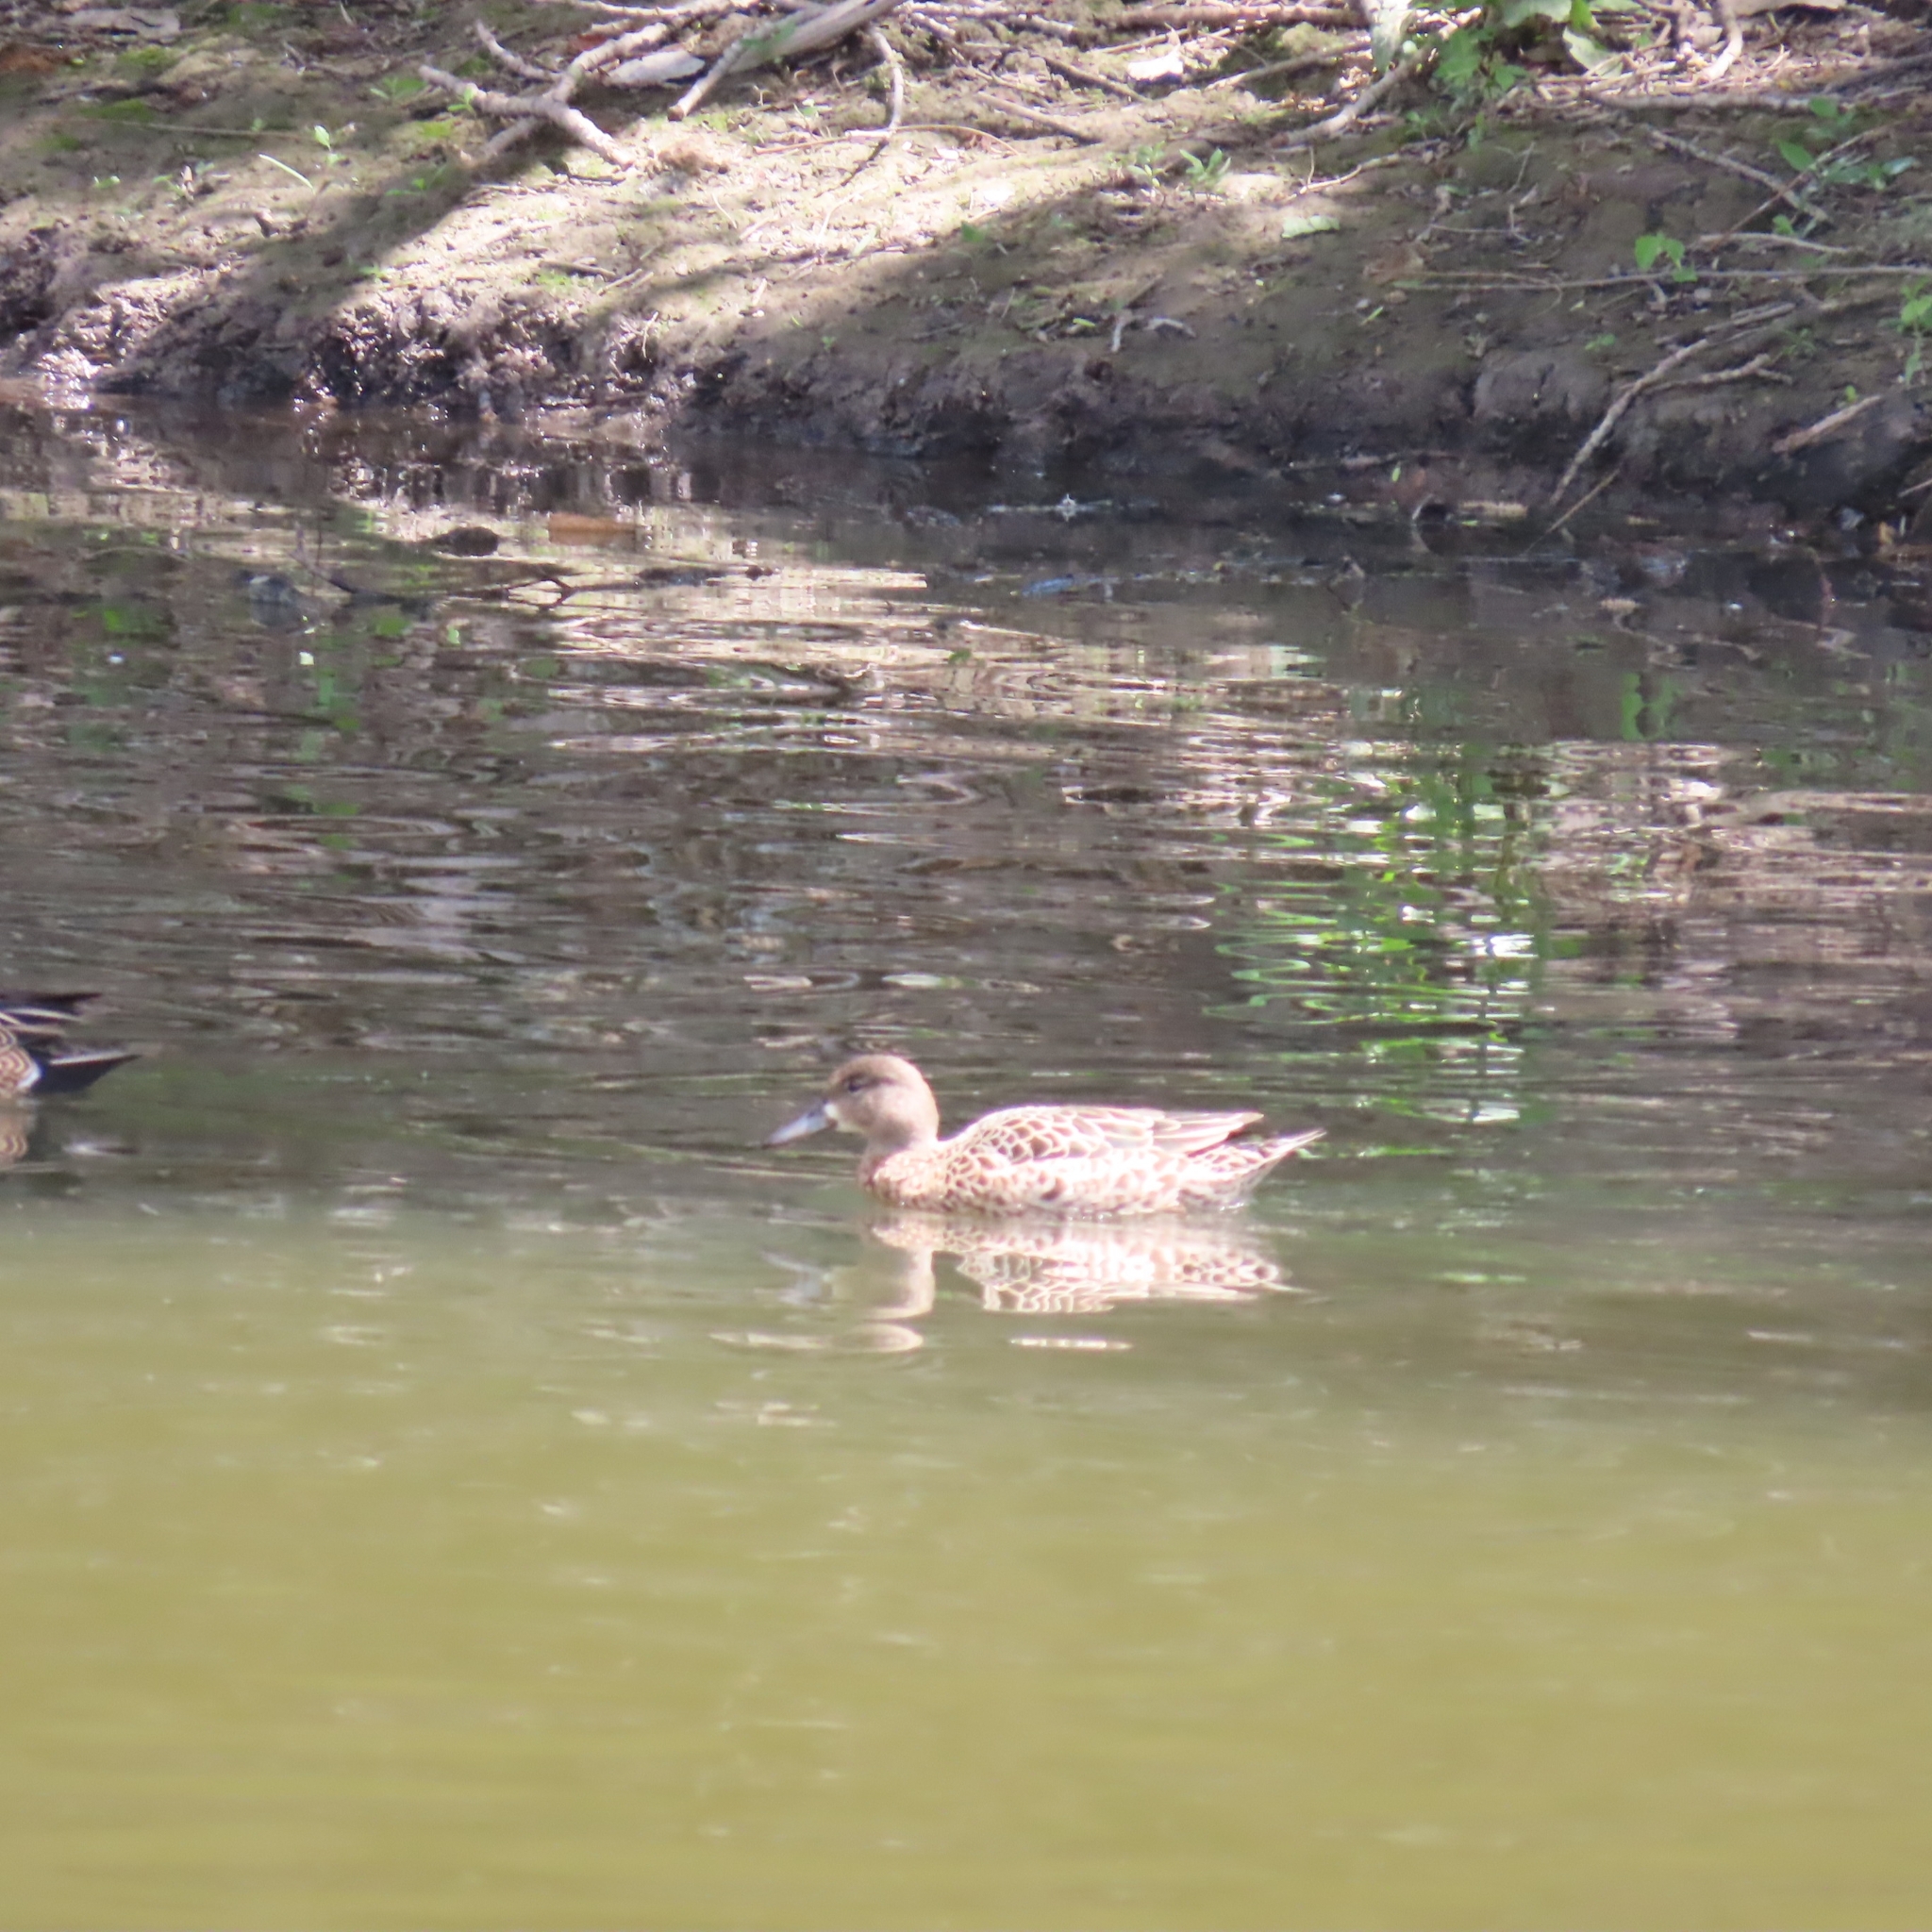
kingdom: Animalia
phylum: Chordata
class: Aves
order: Anseriformes
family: Anatidae
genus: Spatula
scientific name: Spatula discors
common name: Blue-winged teal
